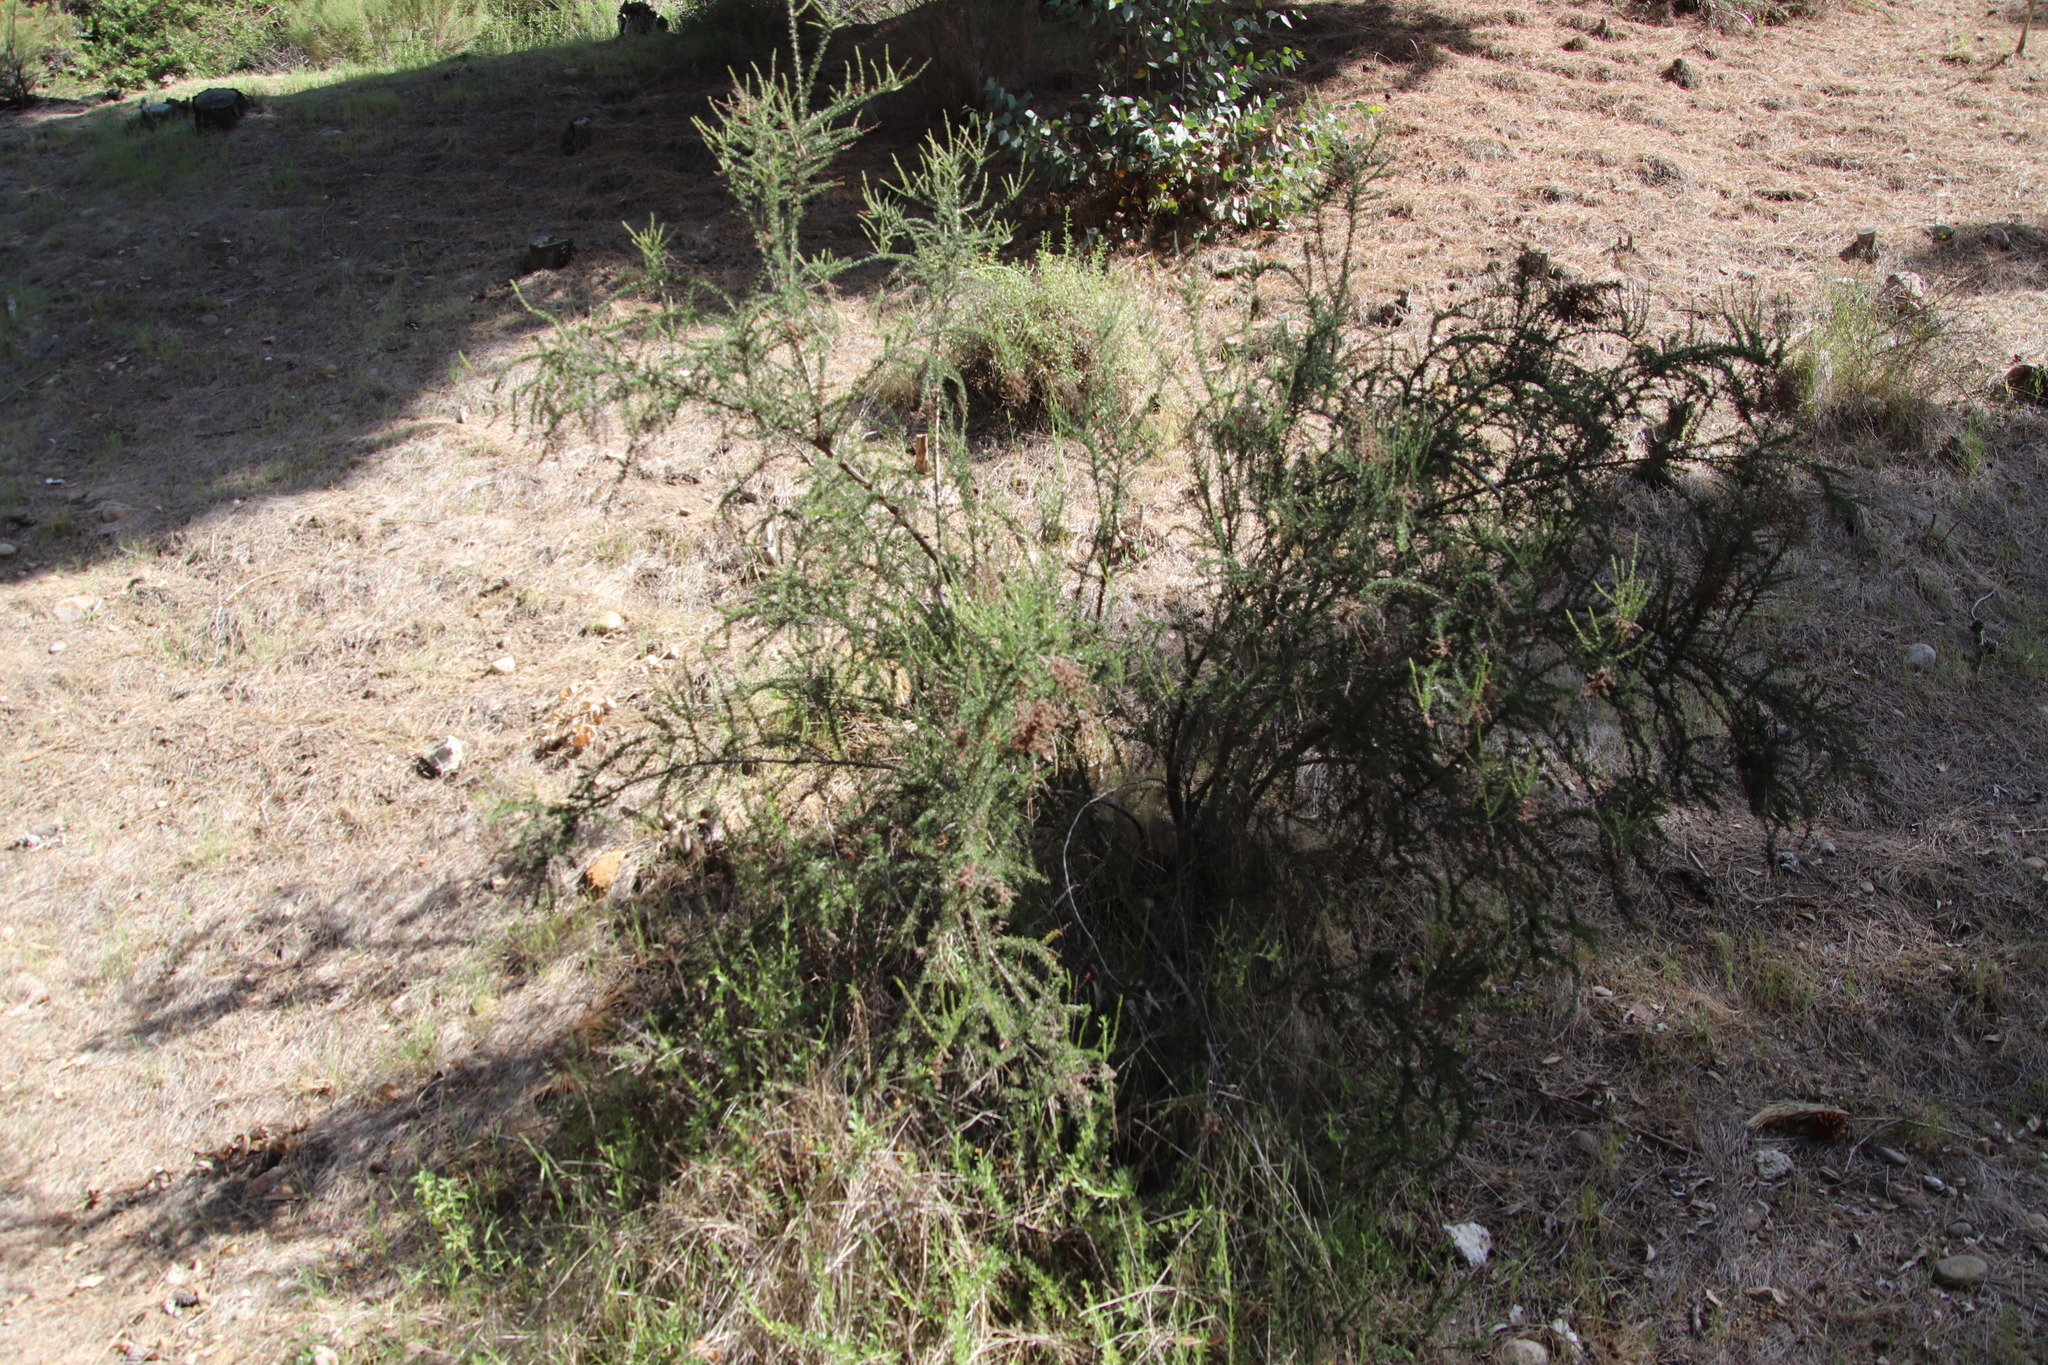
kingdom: Plantae
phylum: Tracheophyta
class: Magnoliopsida
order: Rosales
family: Rosaceae
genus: Adenostoma
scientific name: Adenostoma fasciculatum
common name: Chamise
